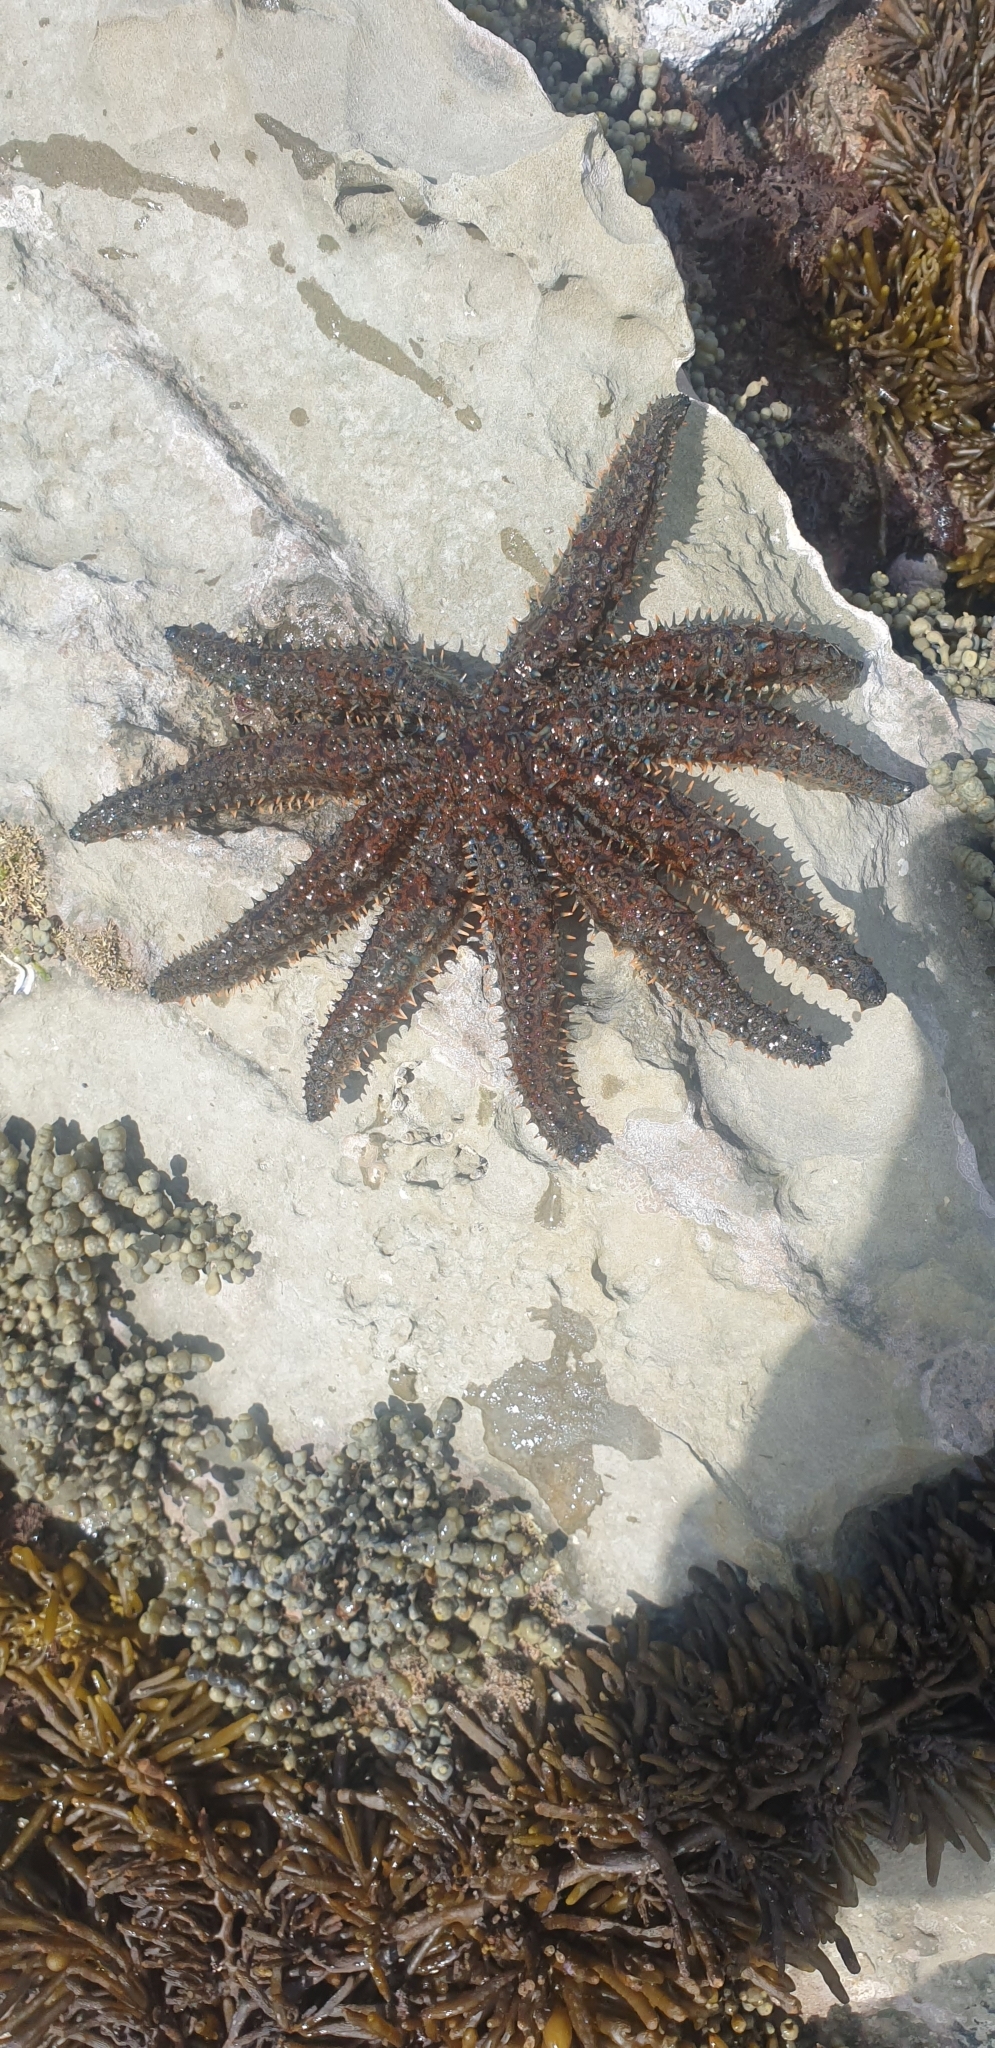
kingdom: Animalia
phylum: Echinodermata
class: Asteroidea
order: Forcipulatida
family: Asteriidae
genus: Coscinasterias
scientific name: Coscinasterias muricata
